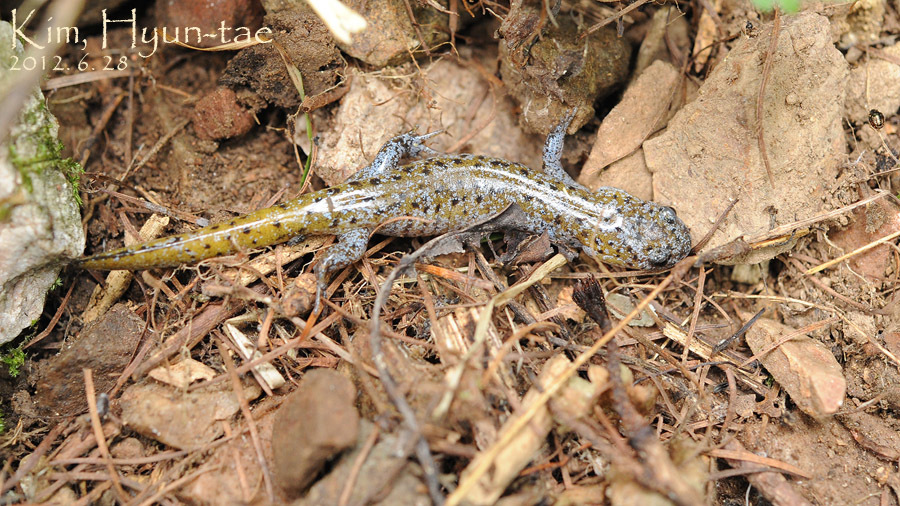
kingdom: Animalia
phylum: Chordata
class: Amphibia
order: Caudata
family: Hynobiidae
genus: Hynobius
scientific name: Hynobius leechii
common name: Gensan salamander
